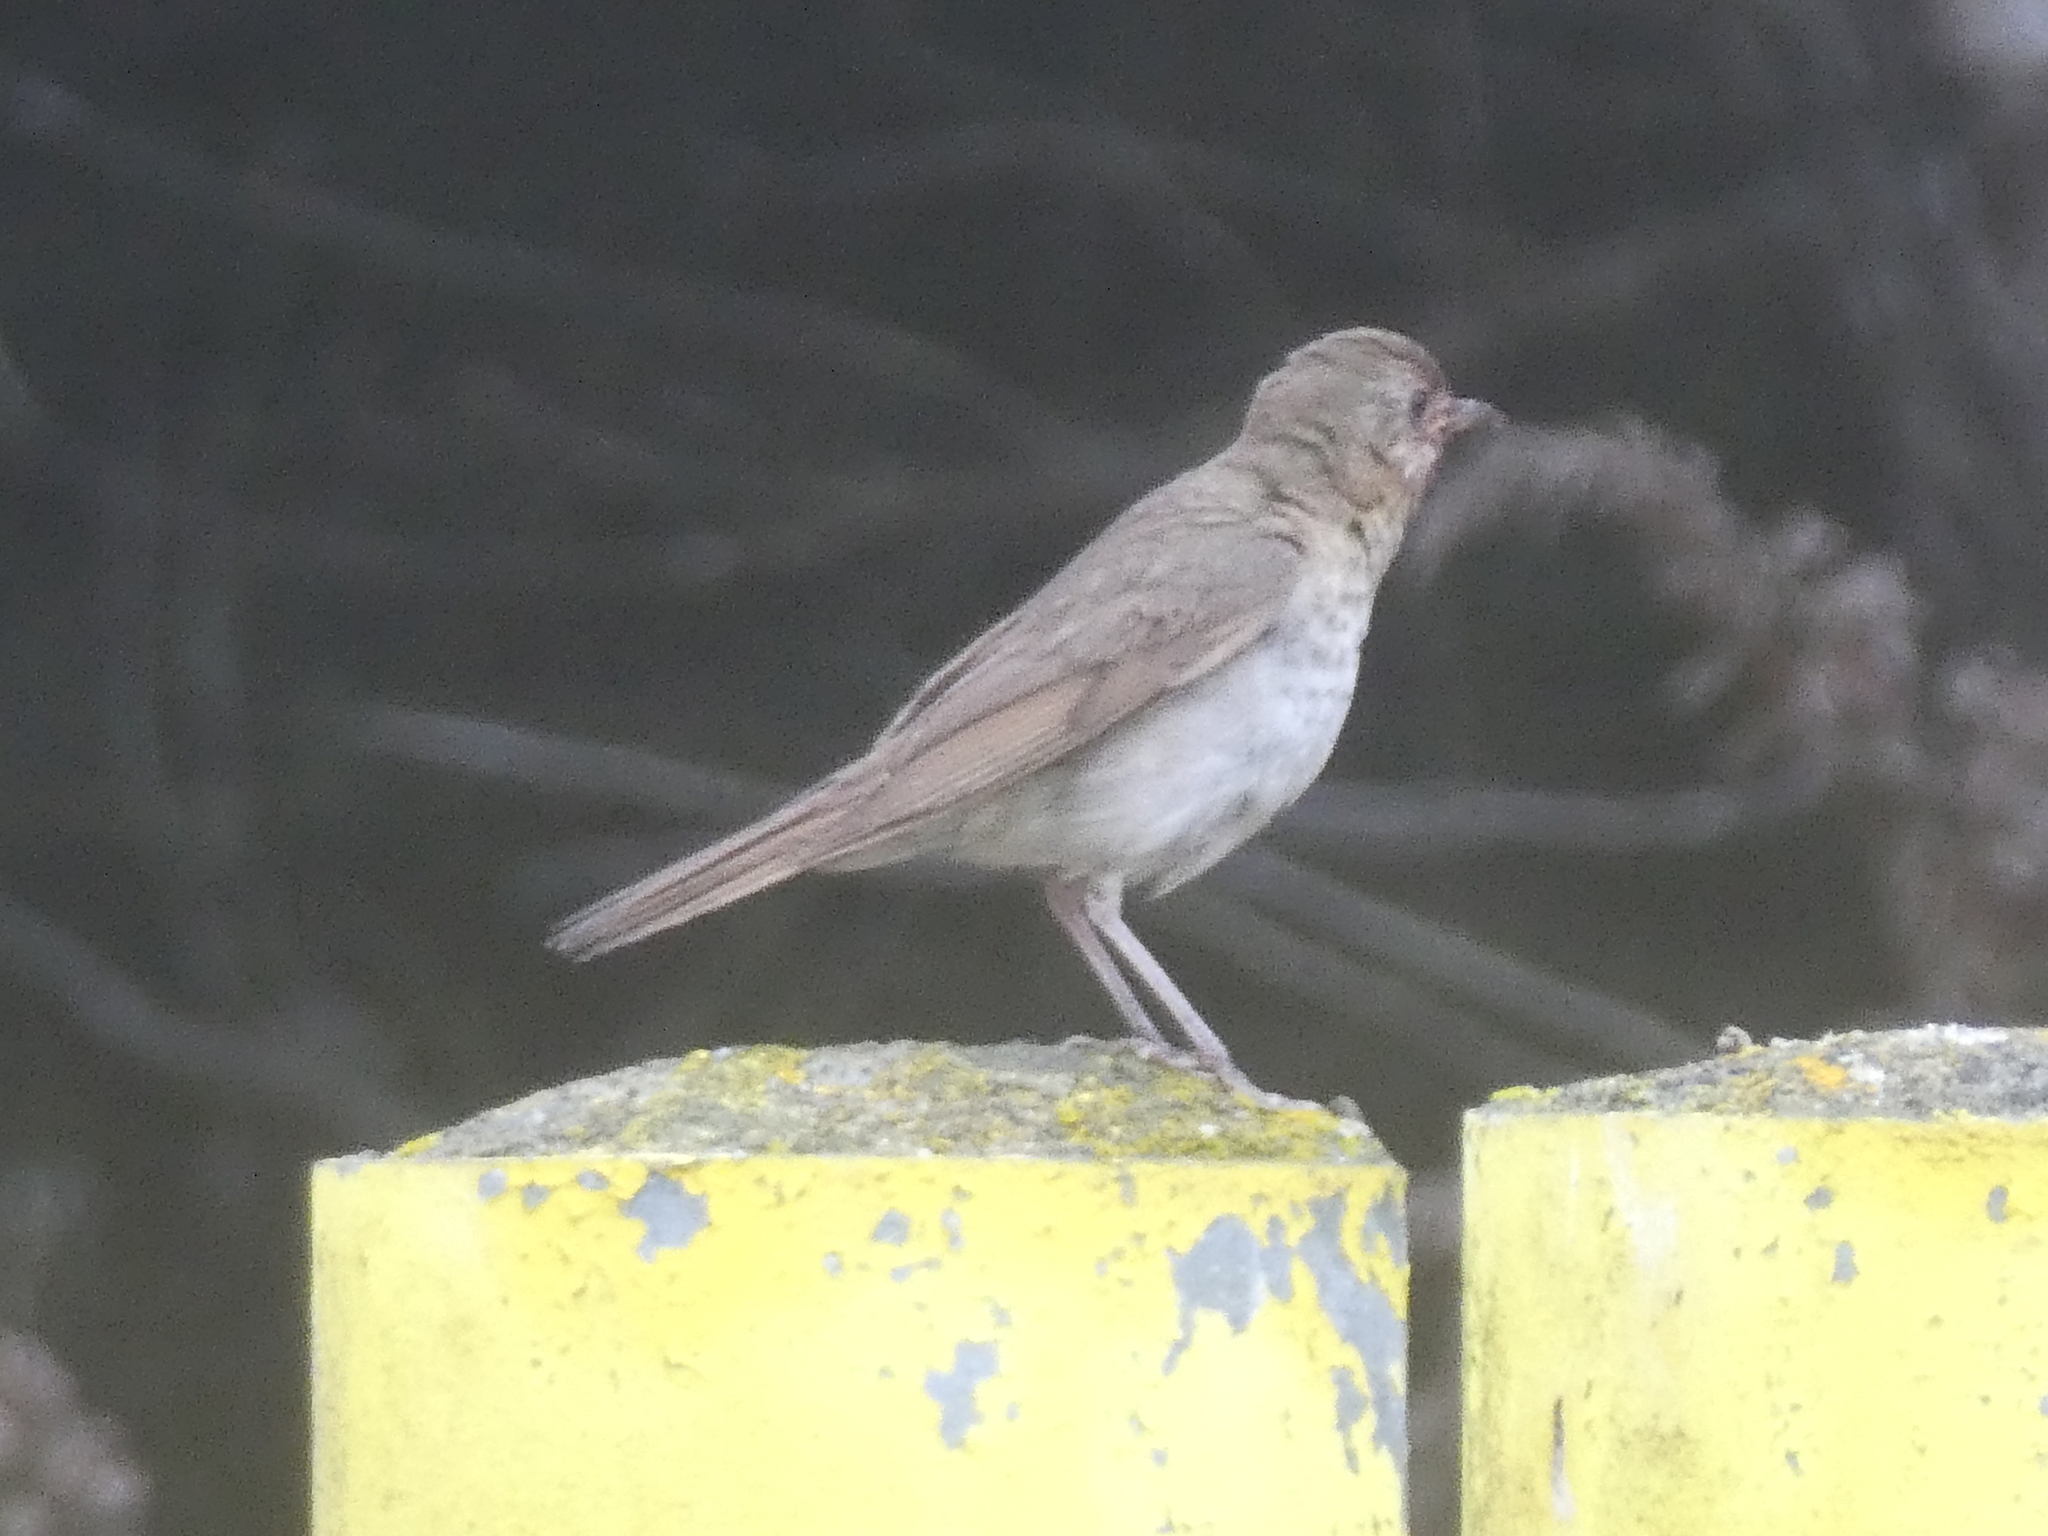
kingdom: Animalia
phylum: Chordata
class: Aves
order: Passeriformes
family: Turdidae
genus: Catharus
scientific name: Catharus ustulatus
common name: Swainson's thrush
